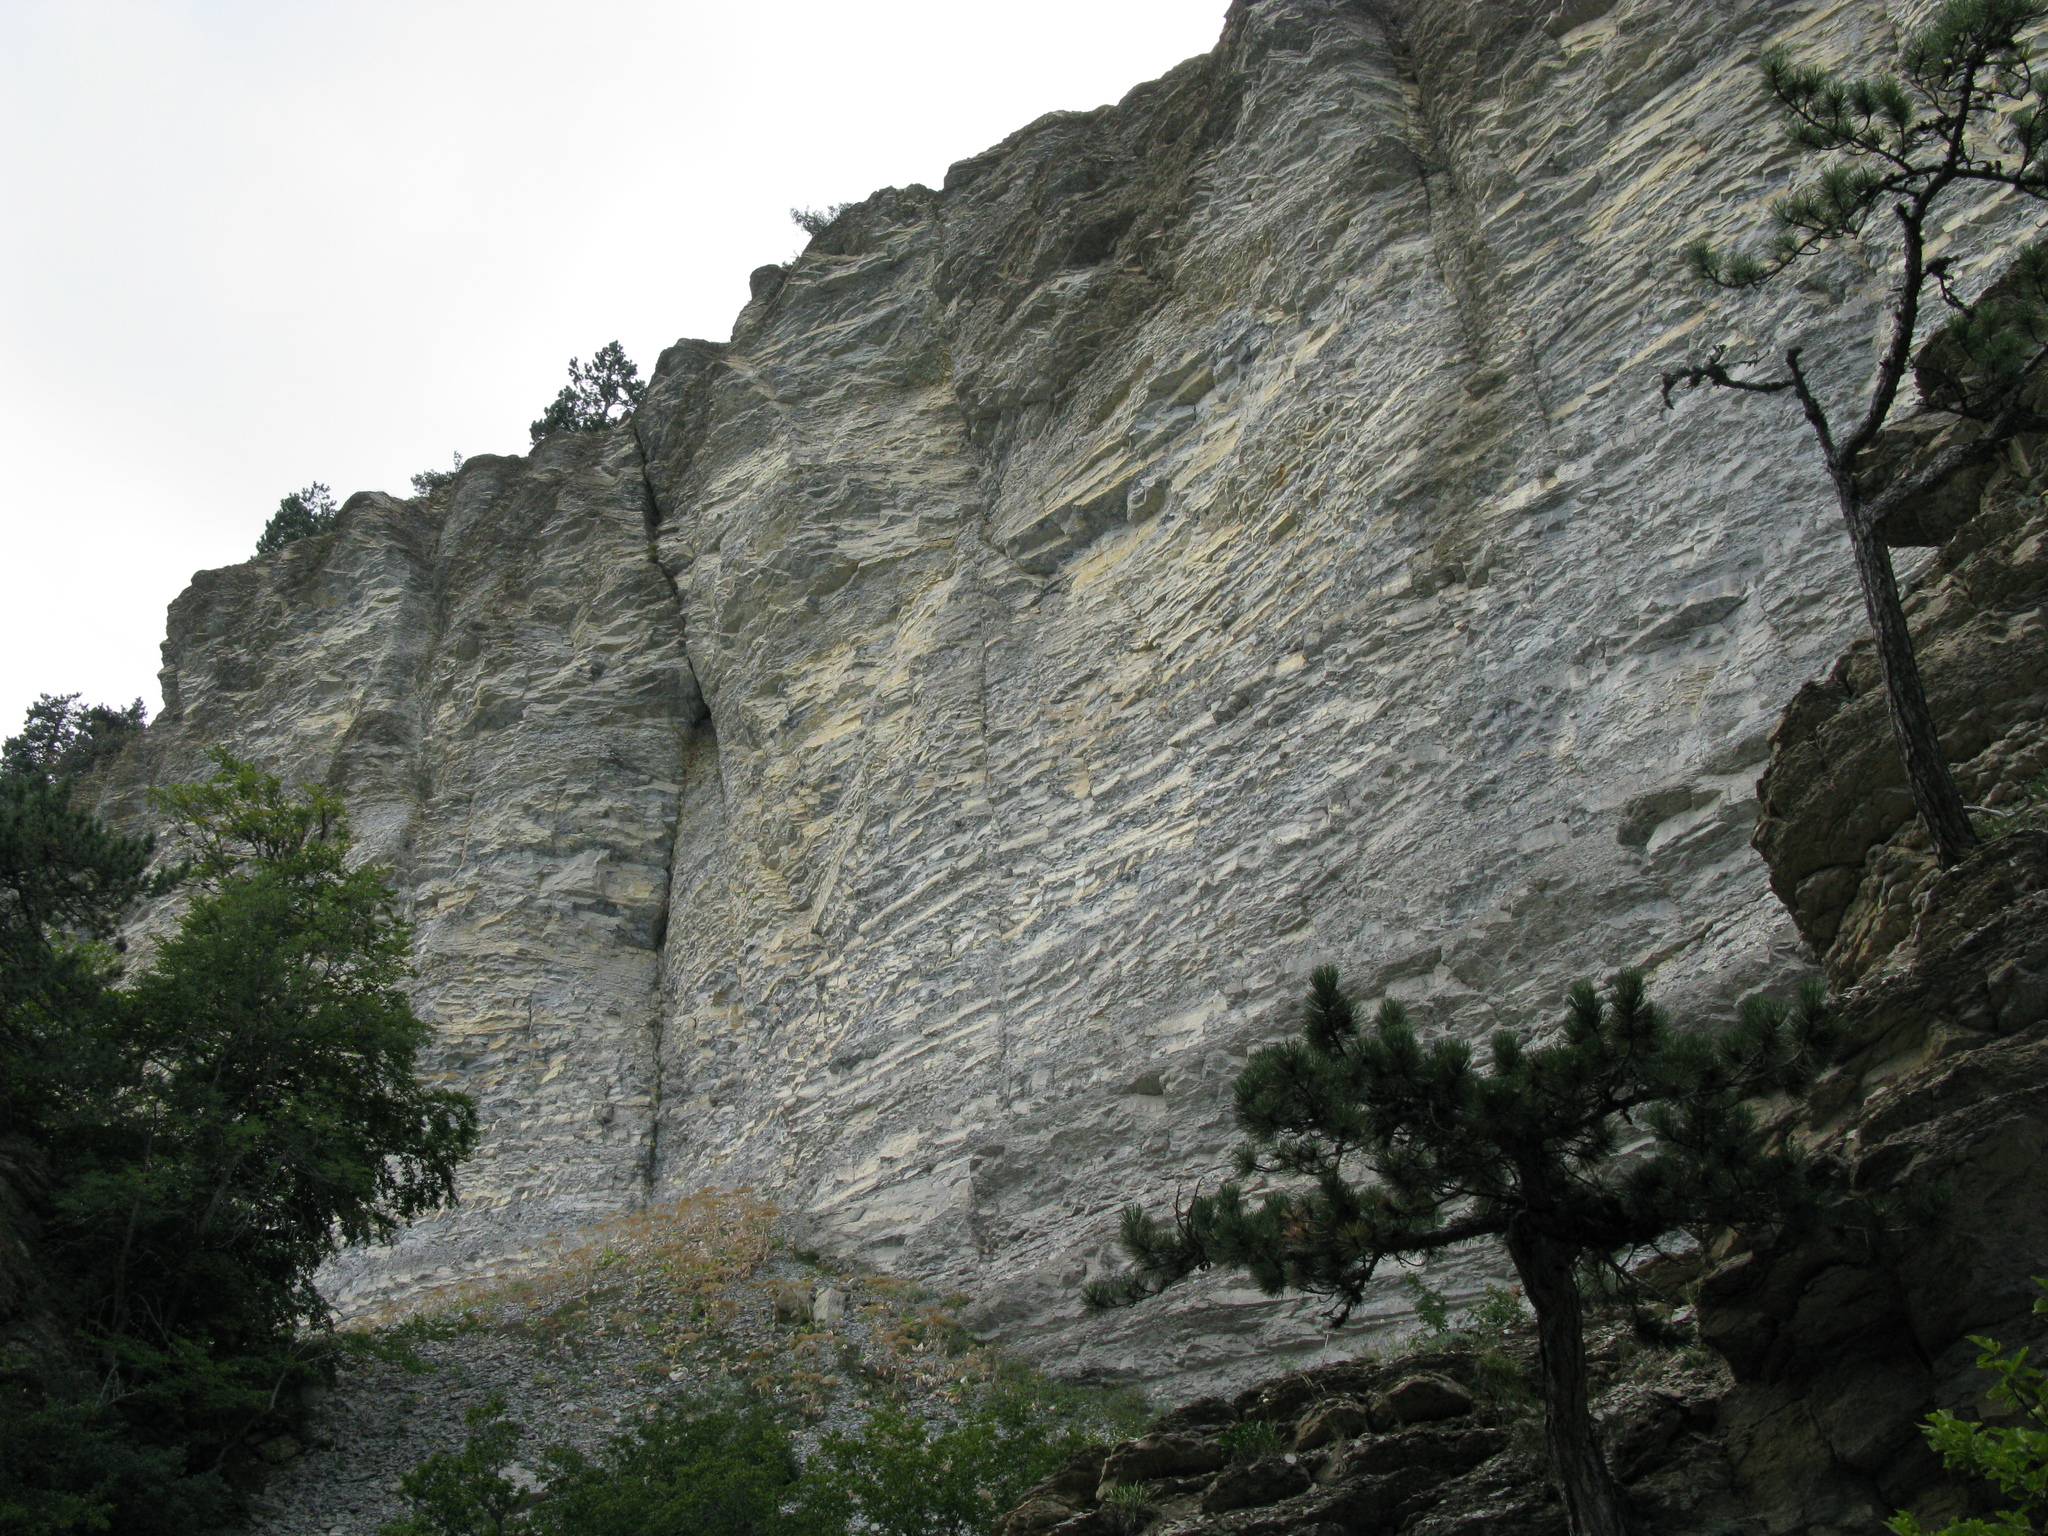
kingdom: Plantae
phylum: Tracheophyta
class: Pinopsida
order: Pinales
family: Pinaceae
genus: Pinus
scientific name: Pinus nigra
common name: Austrian pine
